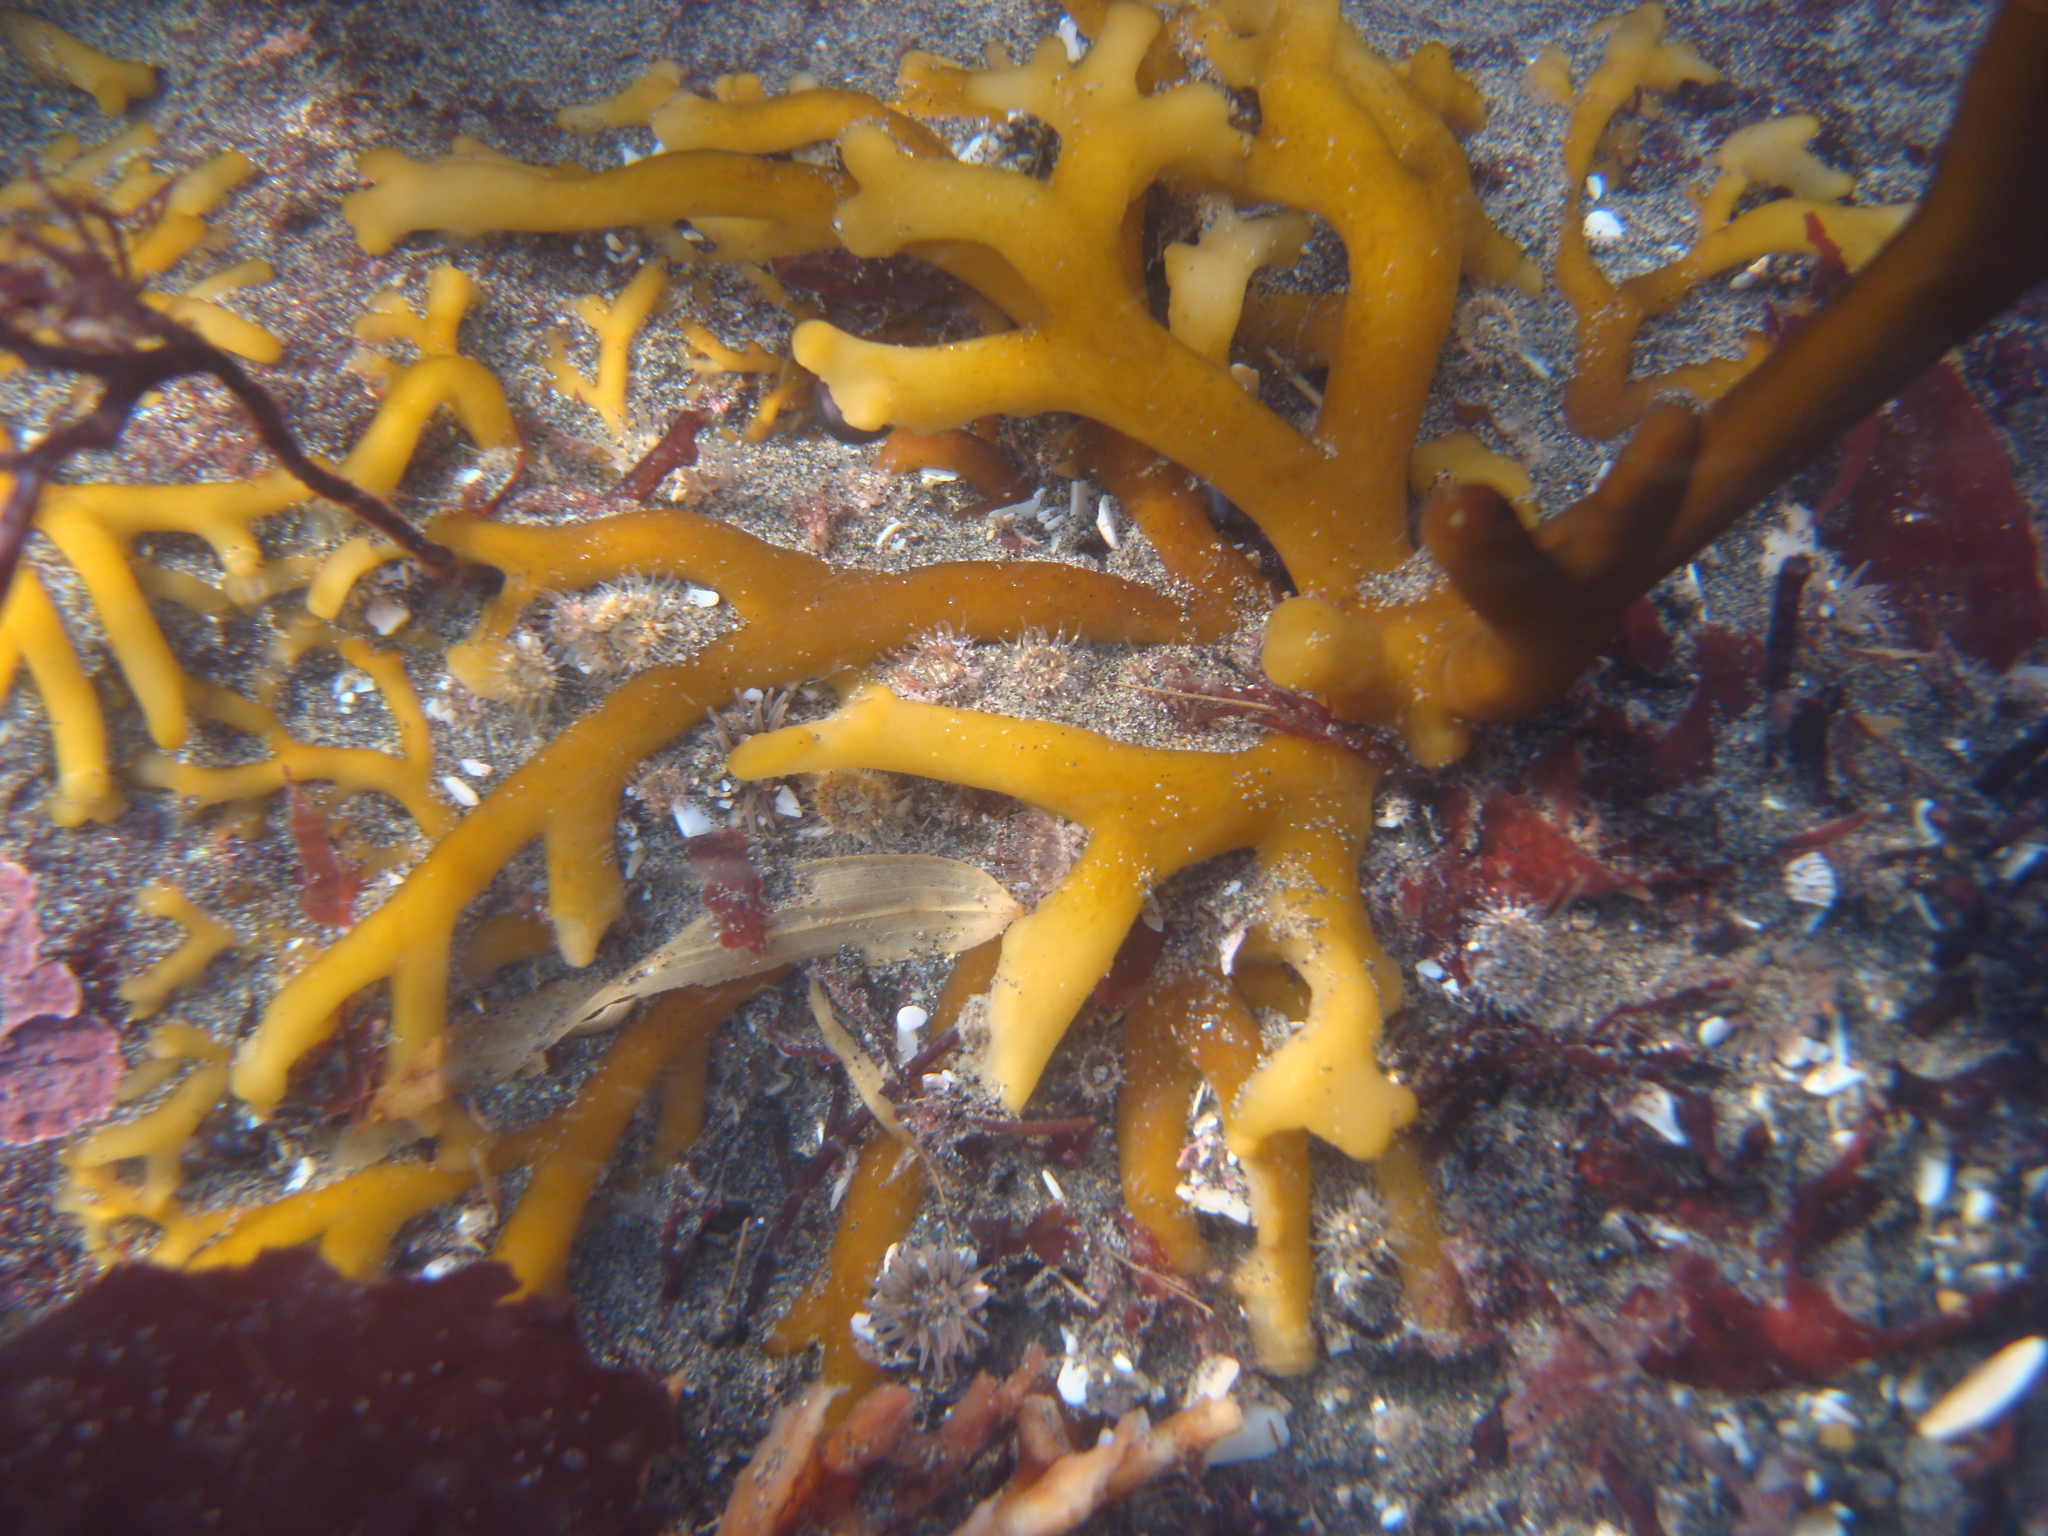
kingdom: Chromista
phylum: Ochrophyta
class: Phaeophyceae
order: Laminariales
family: Laminariaceae
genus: Macrocystis
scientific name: Macrocystis pyrifera
